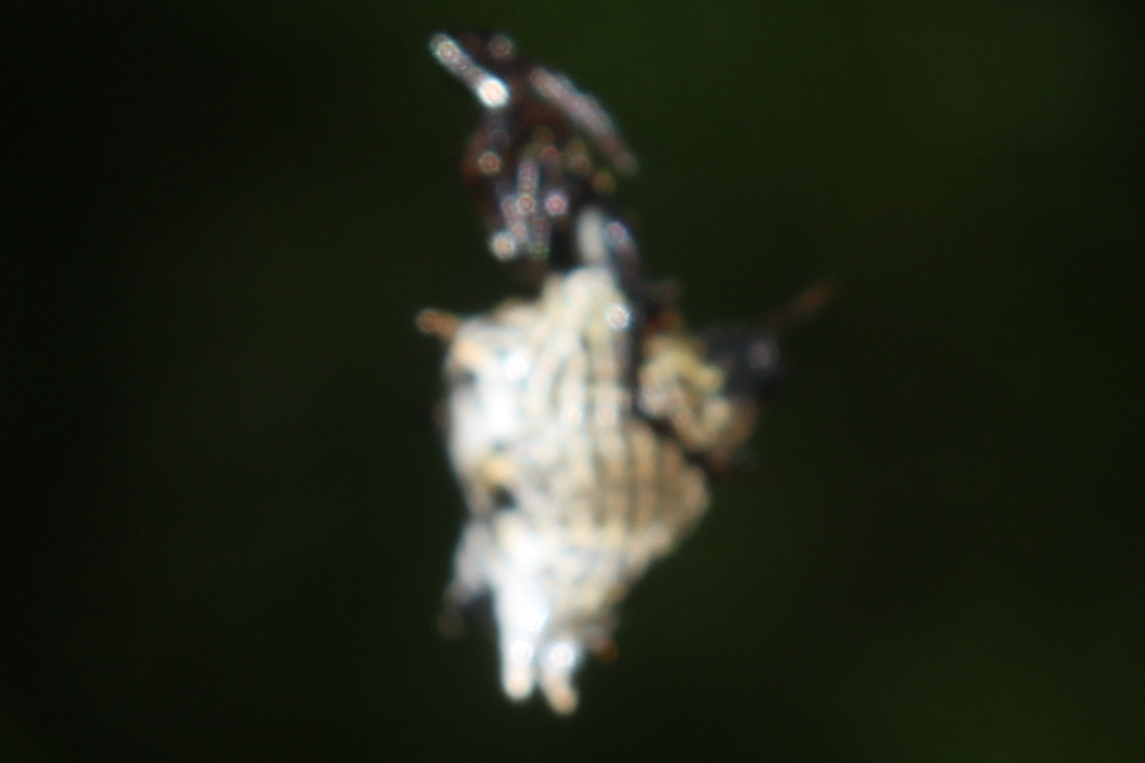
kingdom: Animalia
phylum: Arthropoda
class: Arachnida
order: Araneae
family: Araneidae
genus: Micrathena
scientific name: Micrathena gracilis
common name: Orb weavers
